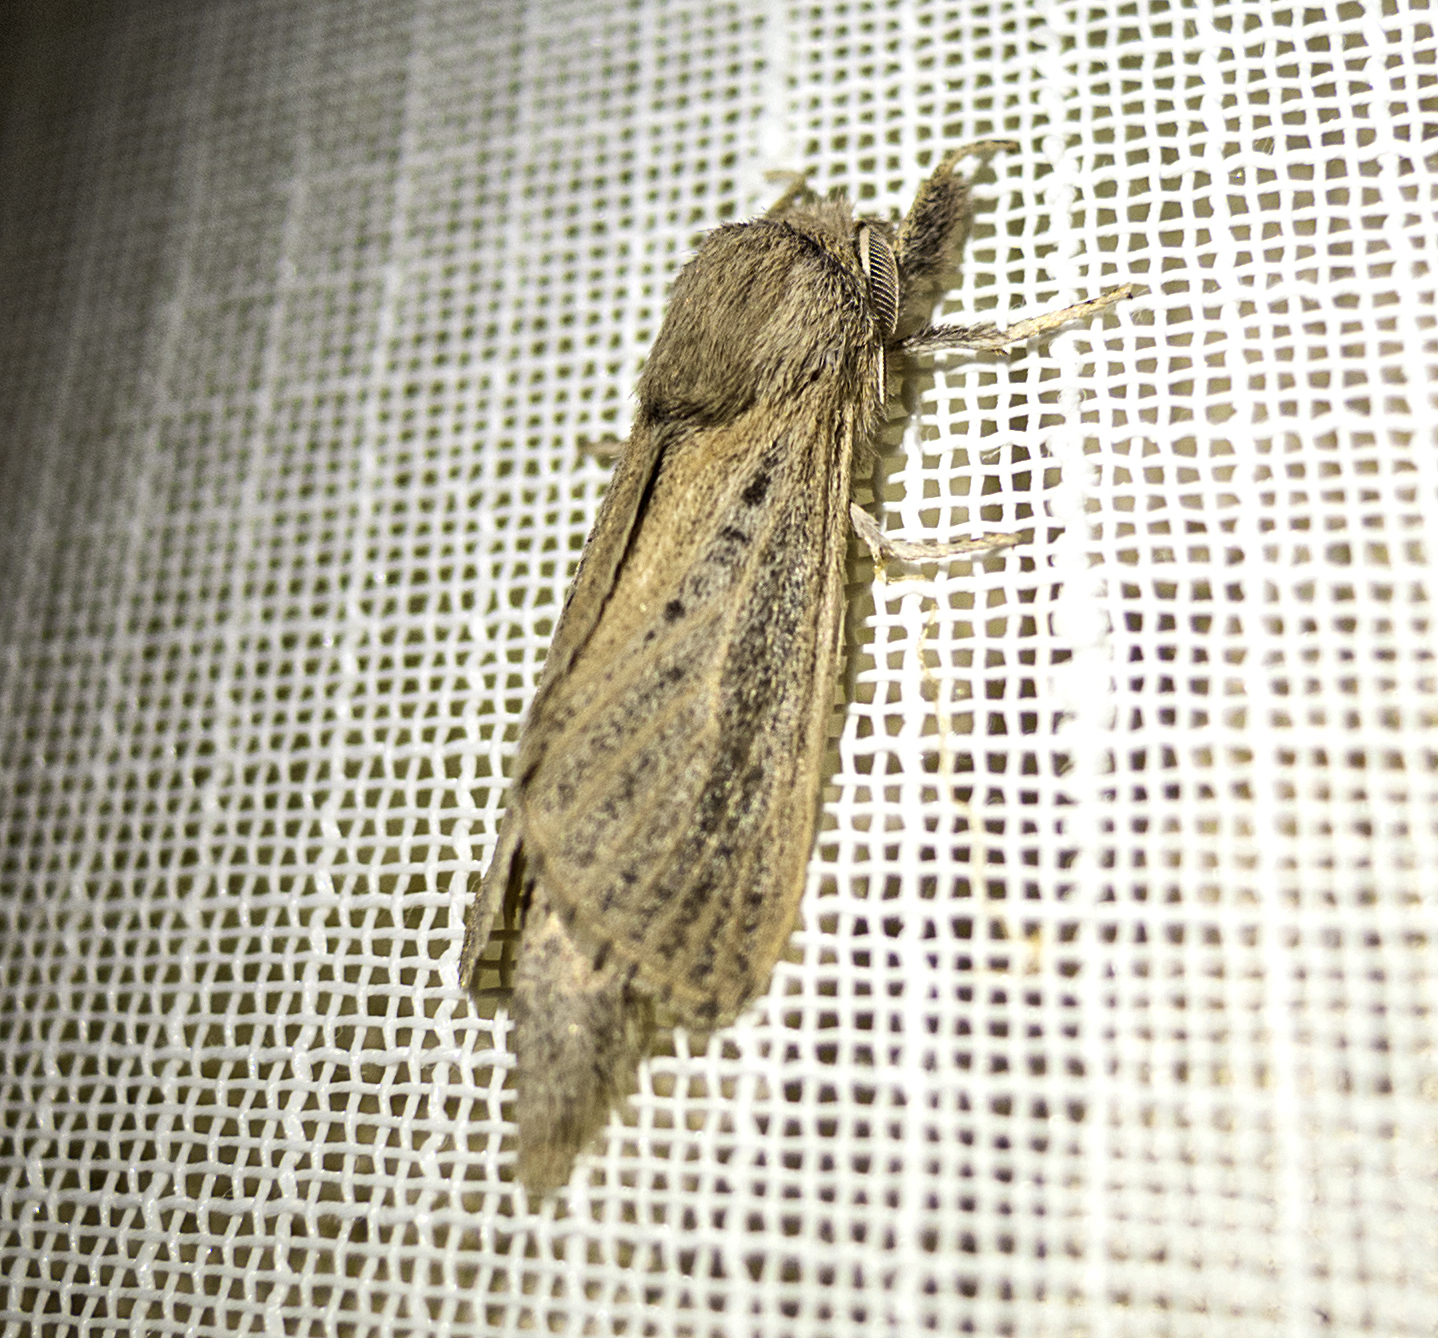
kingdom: Animalia
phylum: Arthropoda
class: Insecta
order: Lepidoptera
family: Cossidae
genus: Phragmataecia
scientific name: Phragmataecia castaneae
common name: Reed leopard
